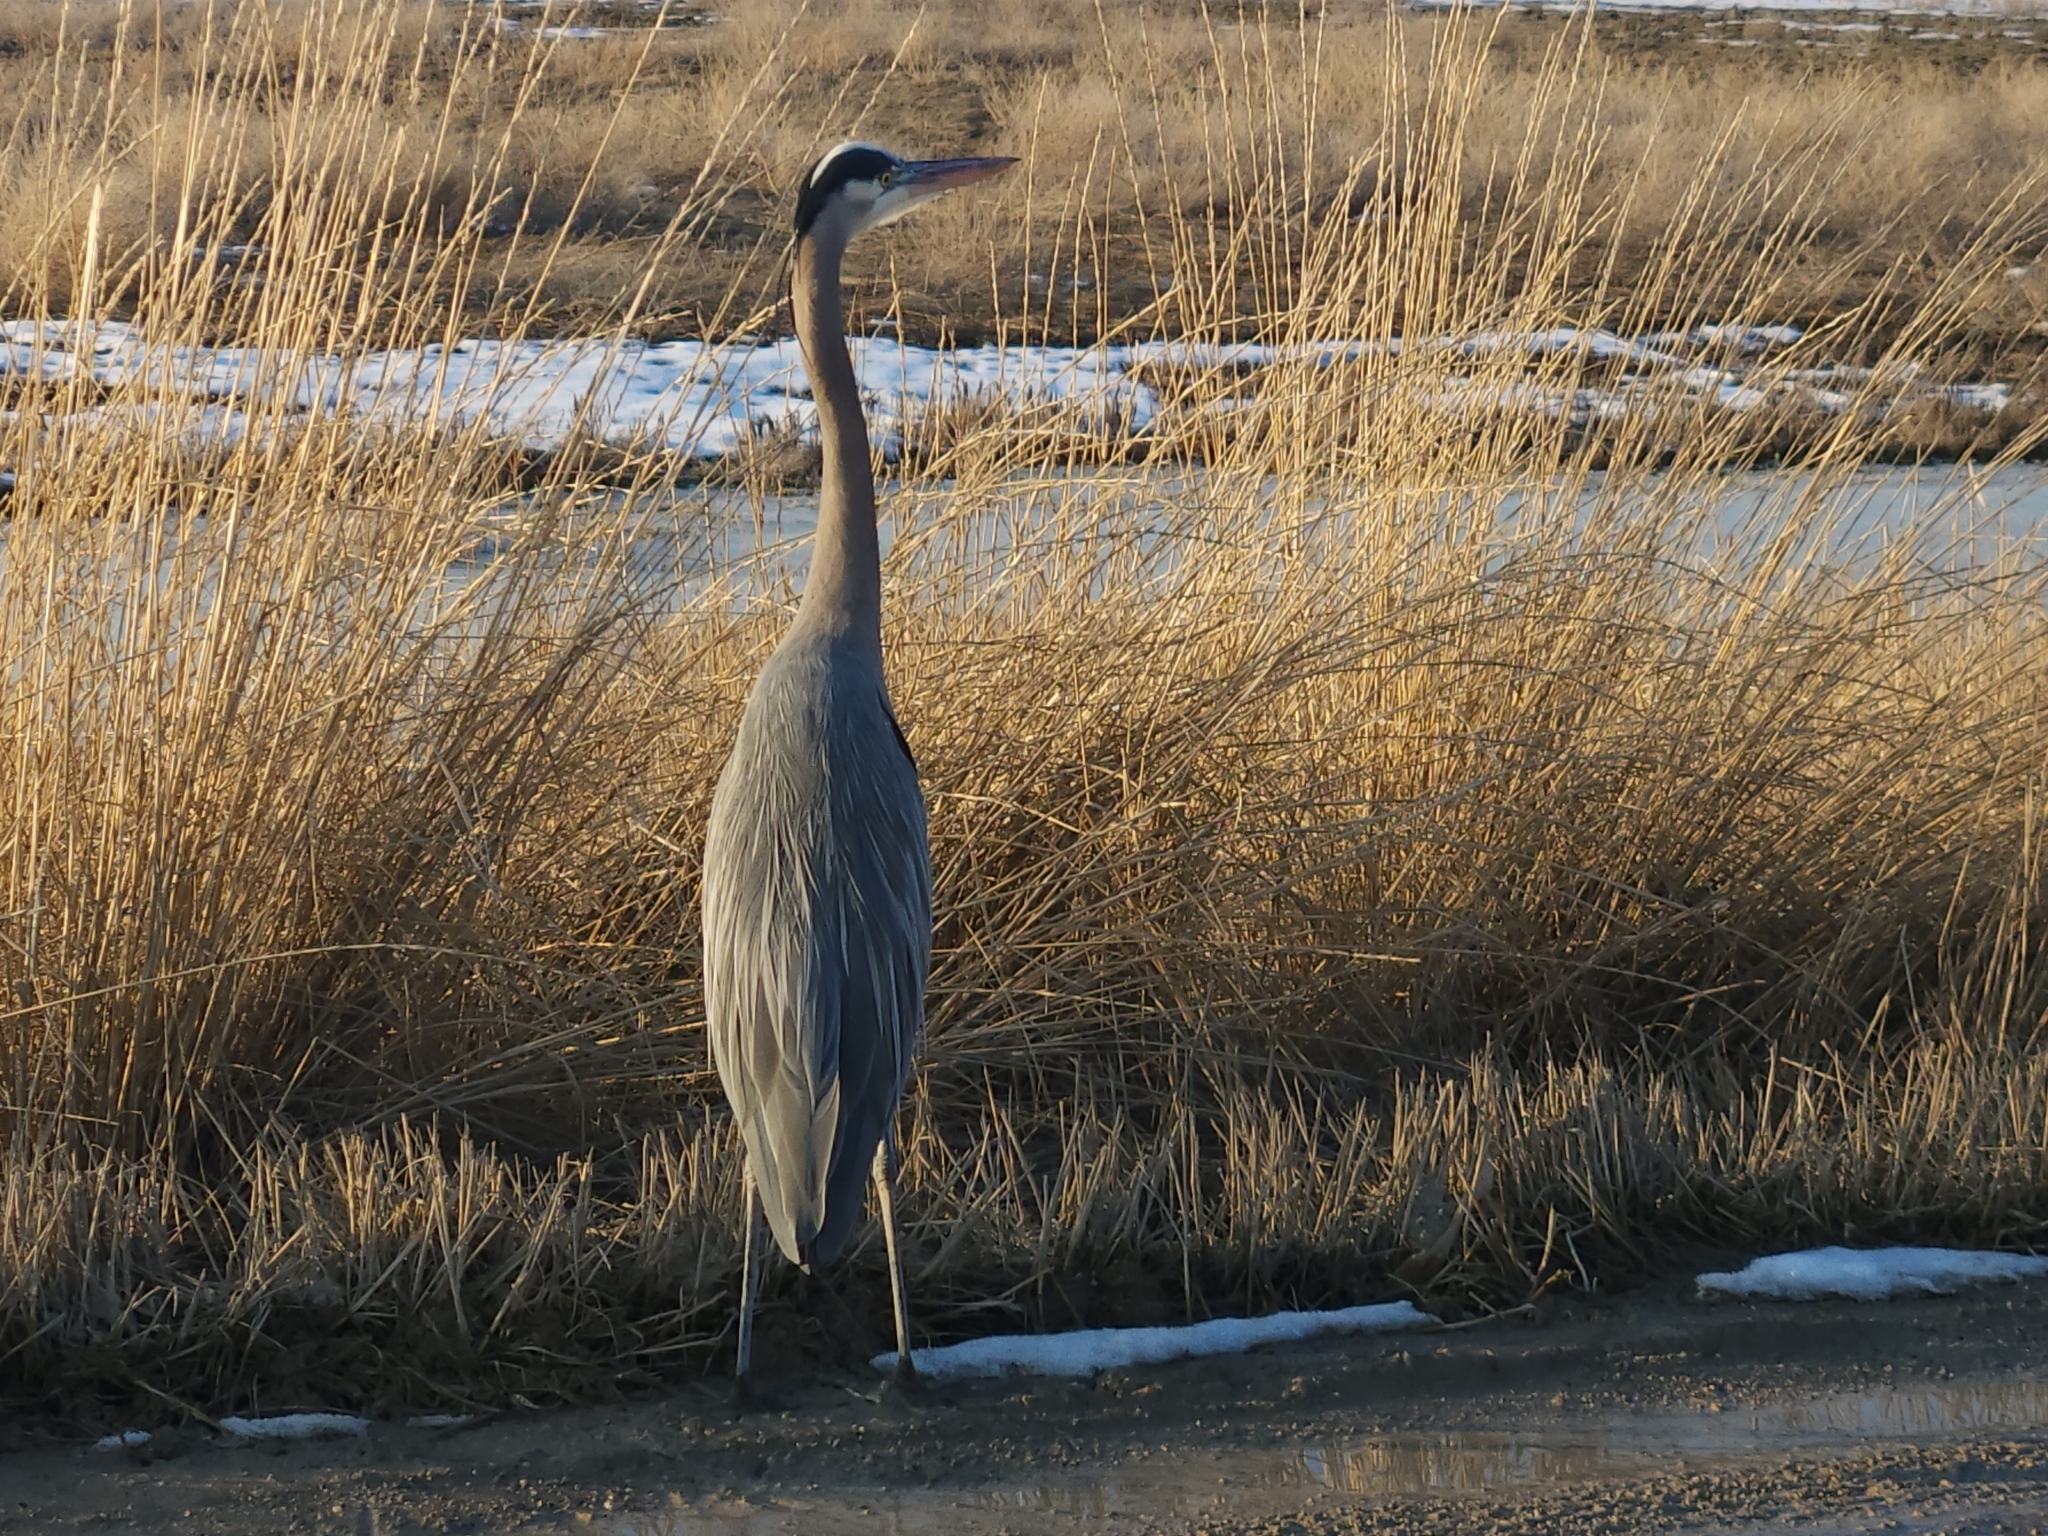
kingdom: Animalia
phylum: Chordata
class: Aves
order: Pelecaniformes
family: Ardeidae
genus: Ardea
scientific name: Ardea herodias
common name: Great blue heron
